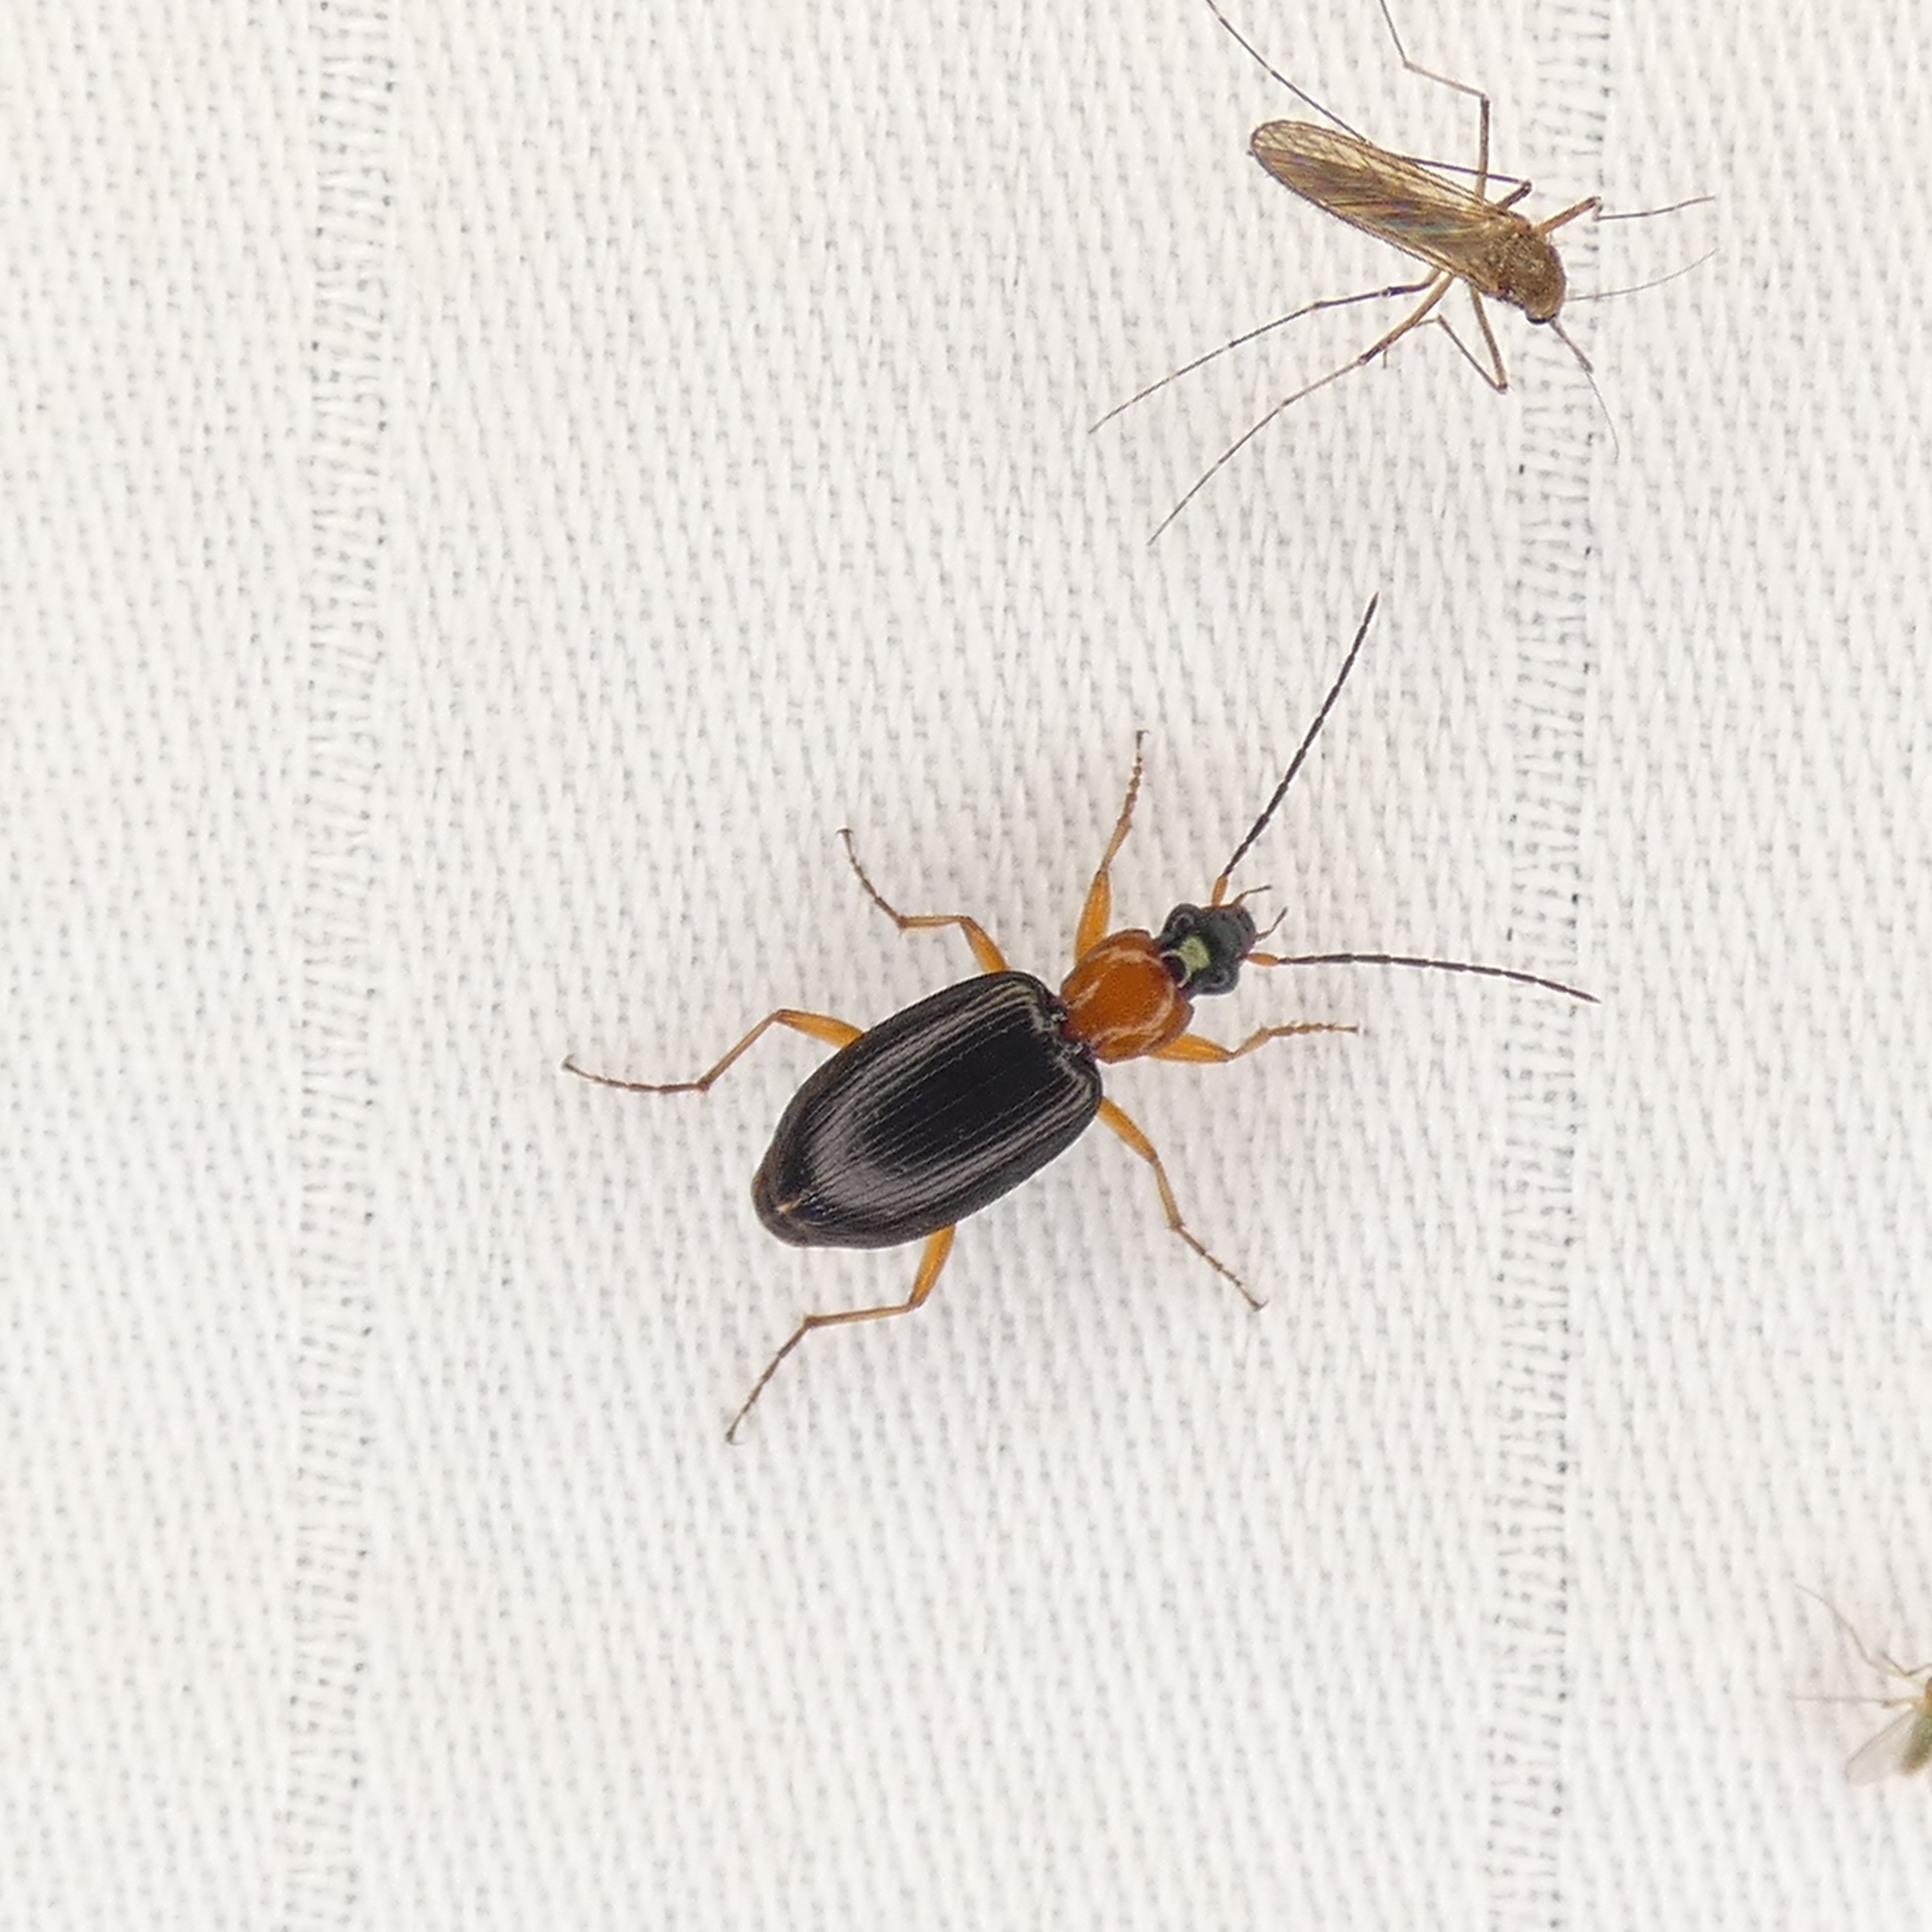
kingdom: Animalia
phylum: Arthropoda
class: Insecta
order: Coleoptera
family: Carabidae
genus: Agonum
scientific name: Agonum decorum
